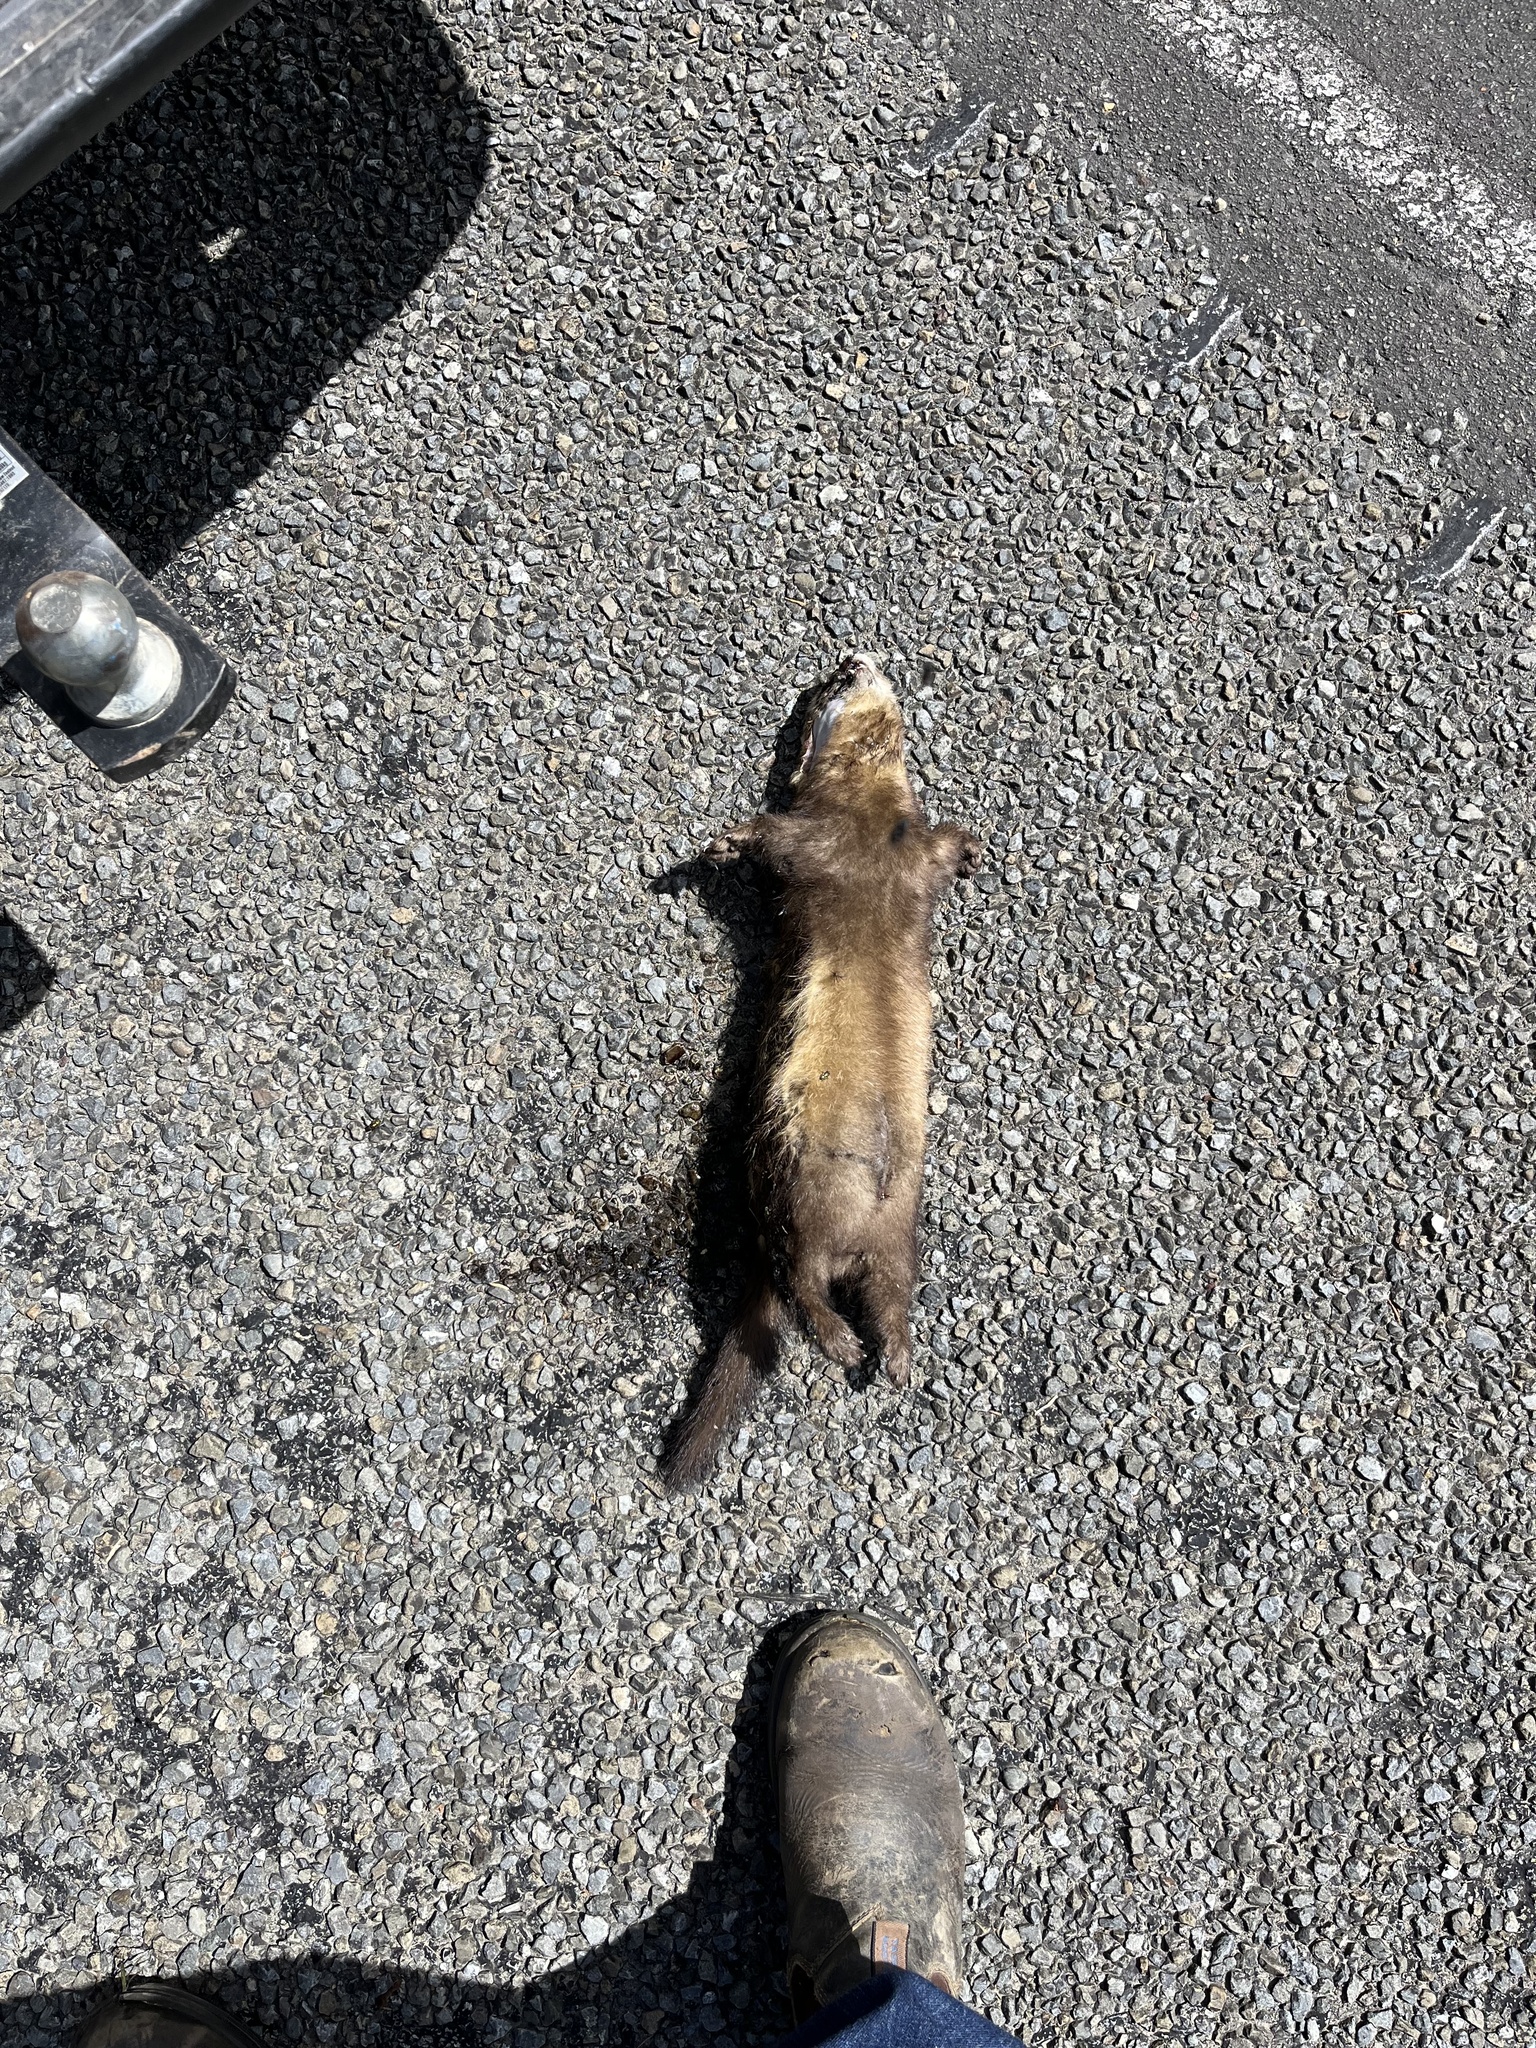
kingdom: Animalia
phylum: Chordata
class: Mammalia
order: Carnivora
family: Mustelidae
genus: Mustela
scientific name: Mustela putorius
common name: European polecat
